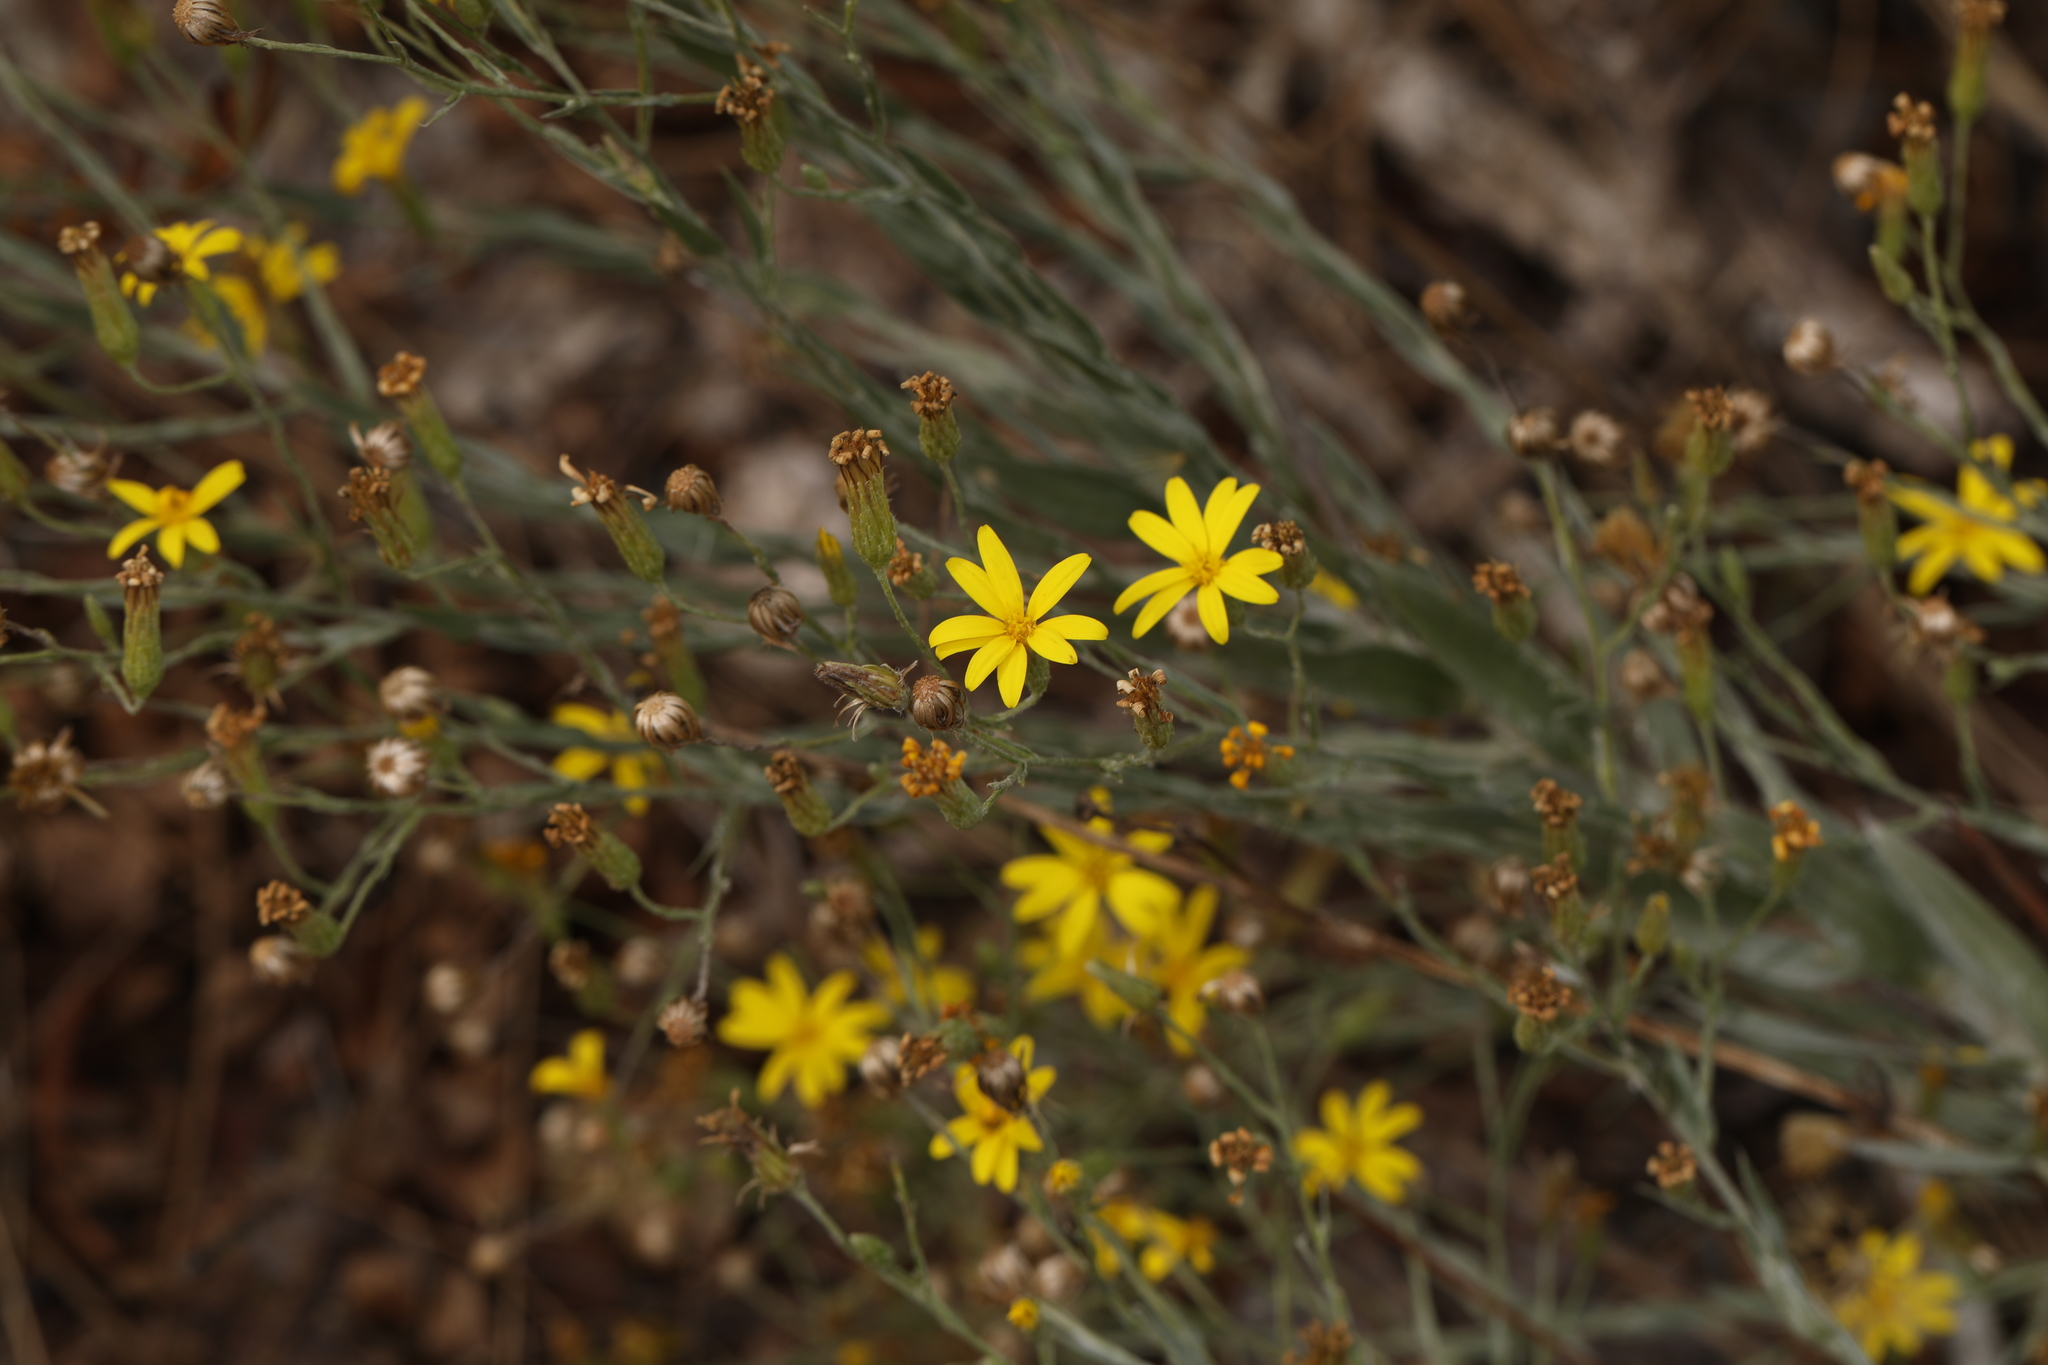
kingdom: Plantae
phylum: Tracheophyta
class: Magnoliopsida
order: Asterales
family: Asteraceae
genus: Pityopsis
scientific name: Pityopsis aequilifolia
